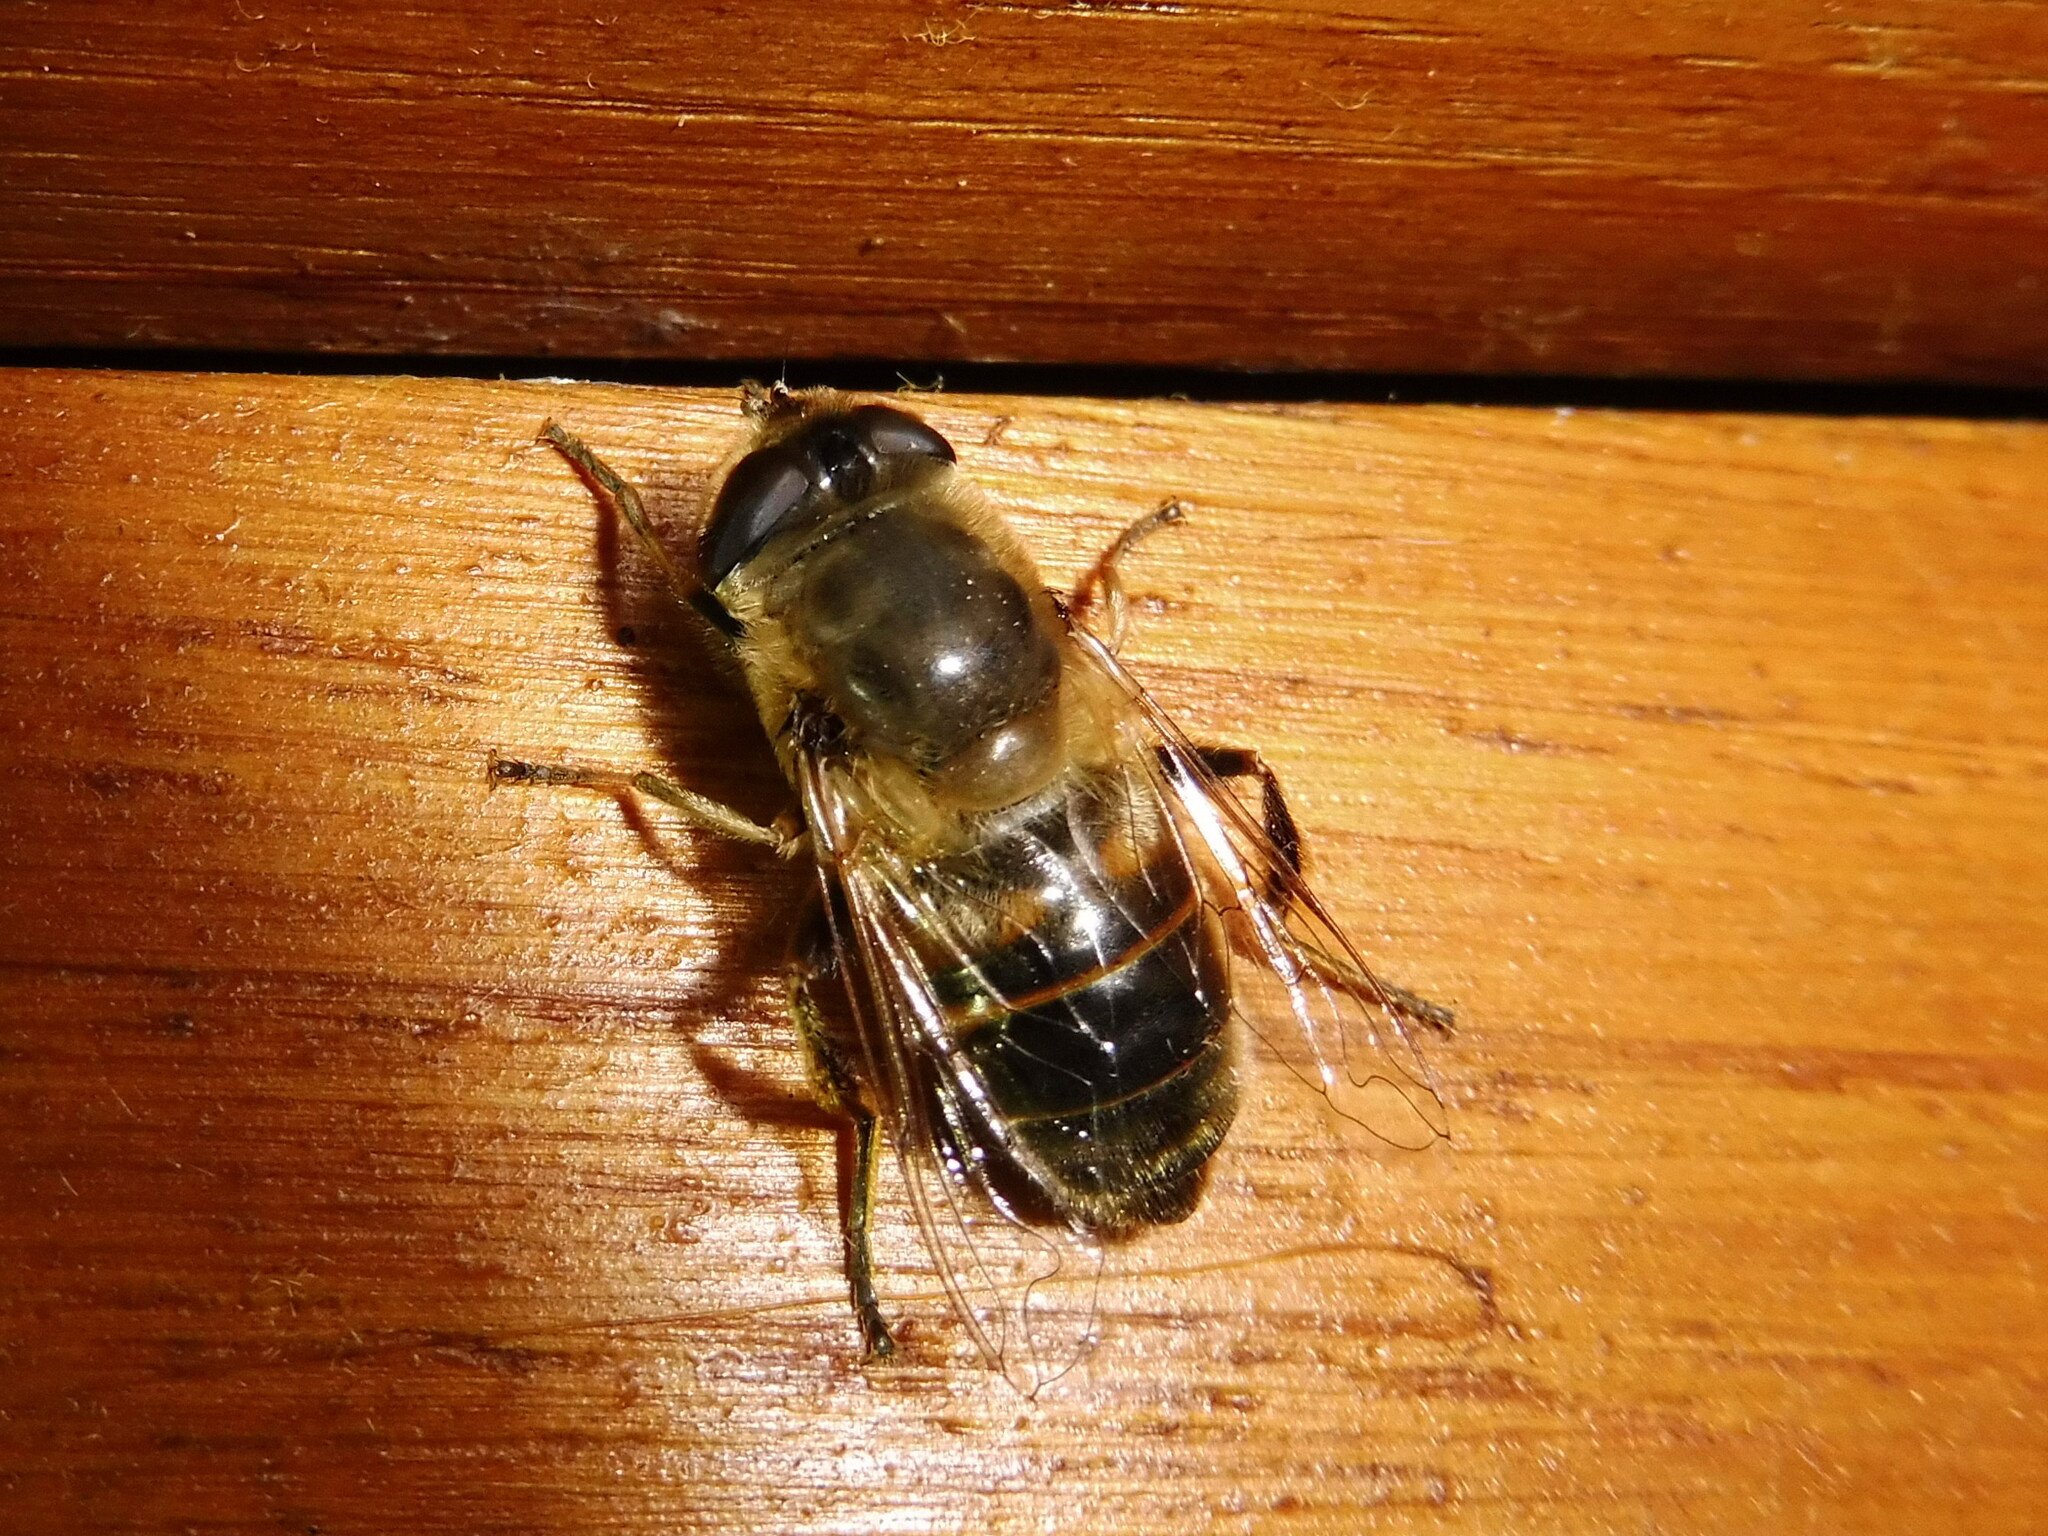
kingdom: Animalia
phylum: Arthropoda
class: Insecta
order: Diptera
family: Syrphidae
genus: Eristalis
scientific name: Eristalis tenax
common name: Drone fly
